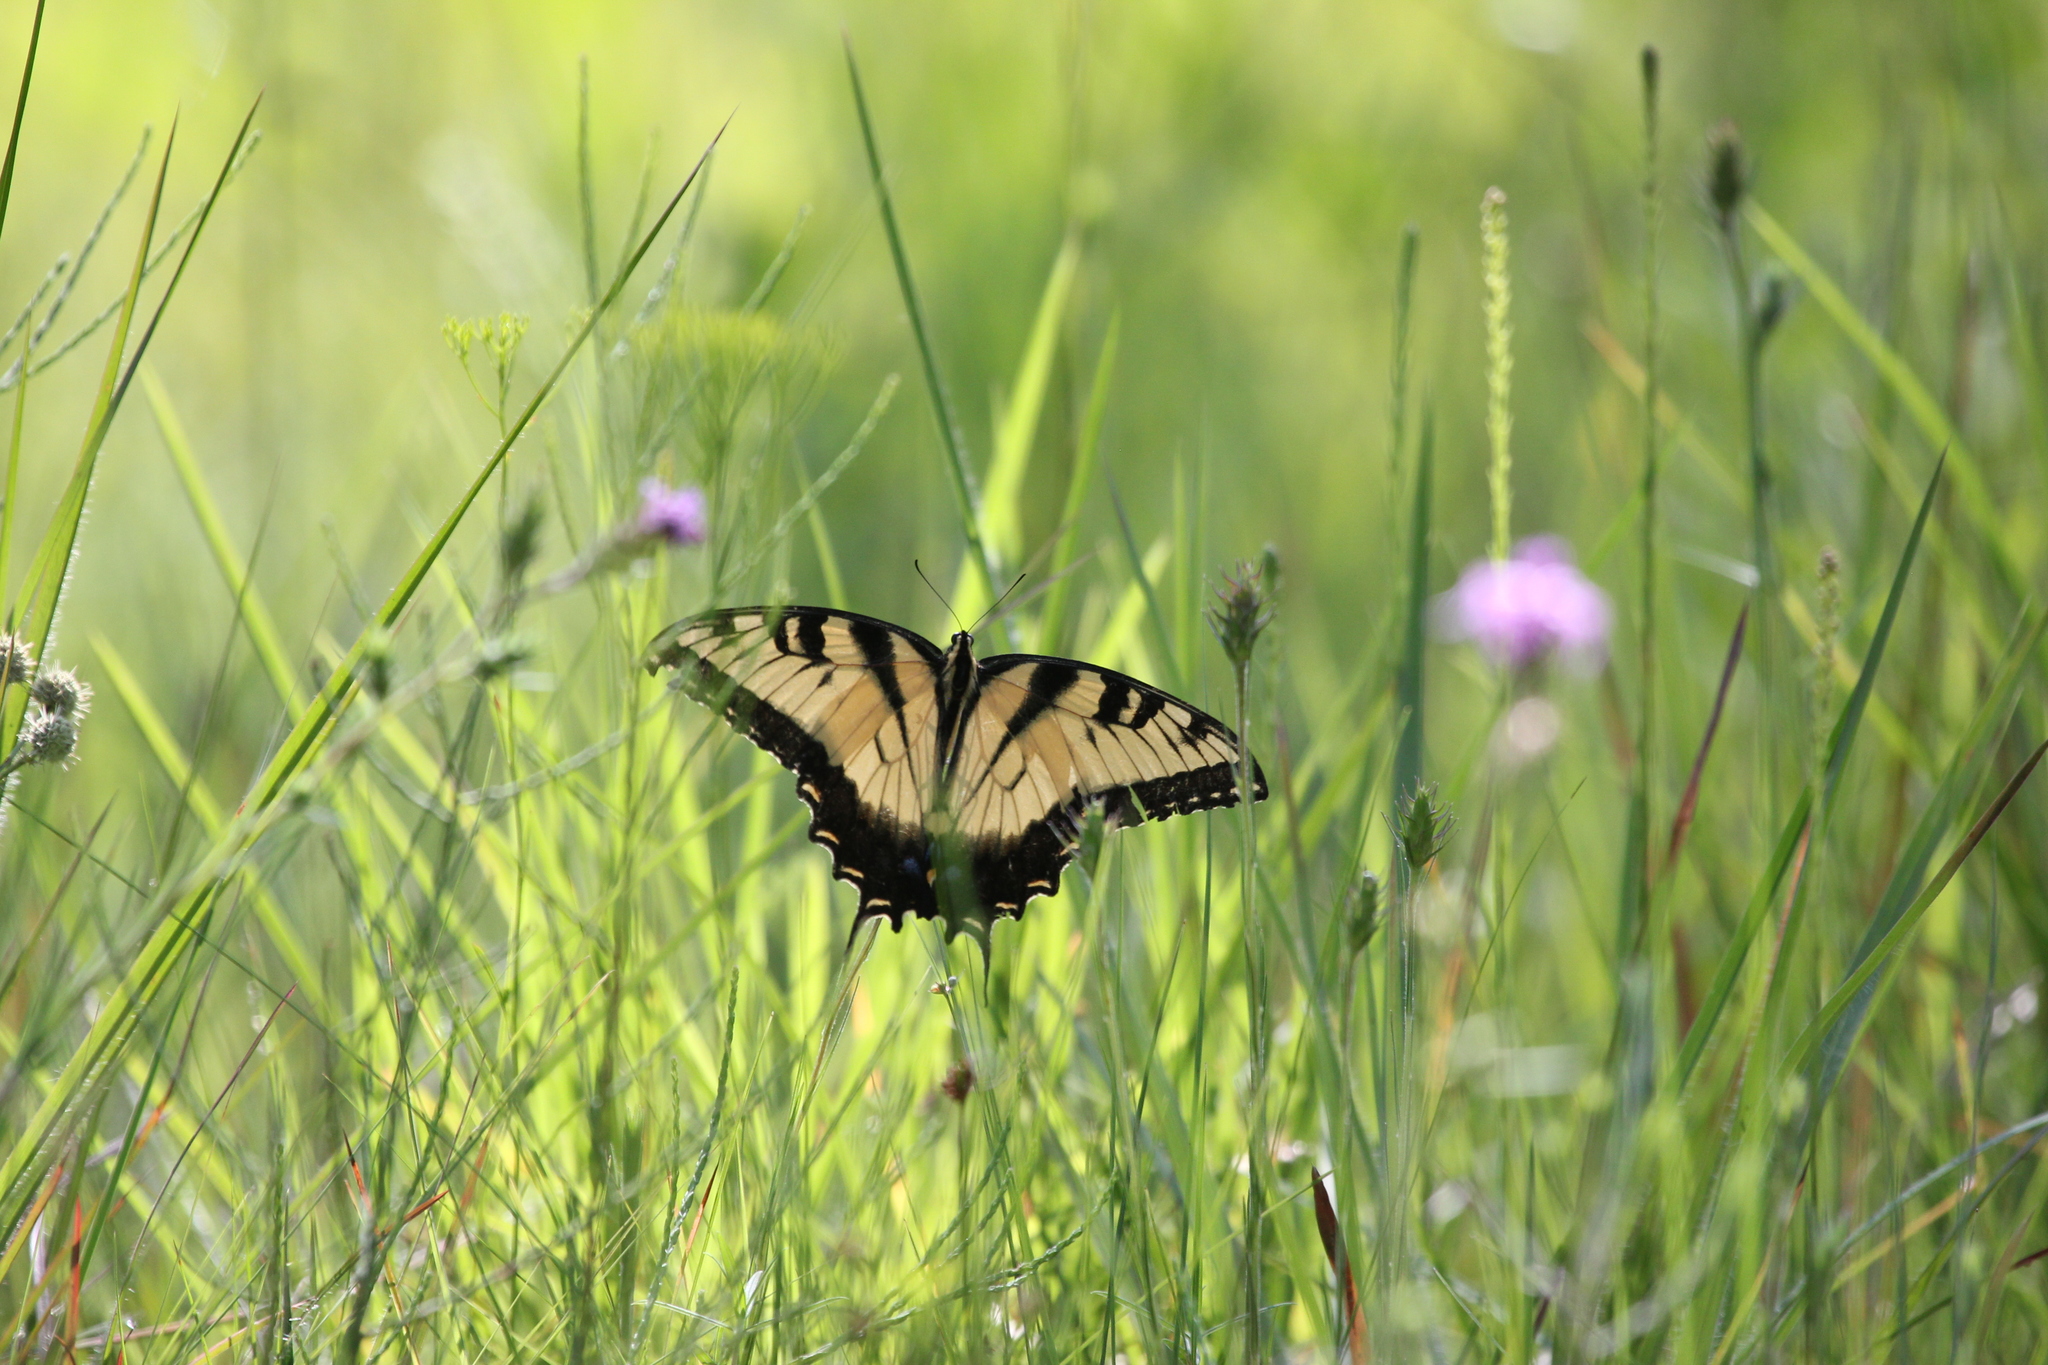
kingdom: Animalia
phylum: Arthropoda
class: Insecta
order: Lepidoptera
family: Papilionidae
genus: Papilio
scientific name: Papilio glaucus
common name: Tiger swallowtail
